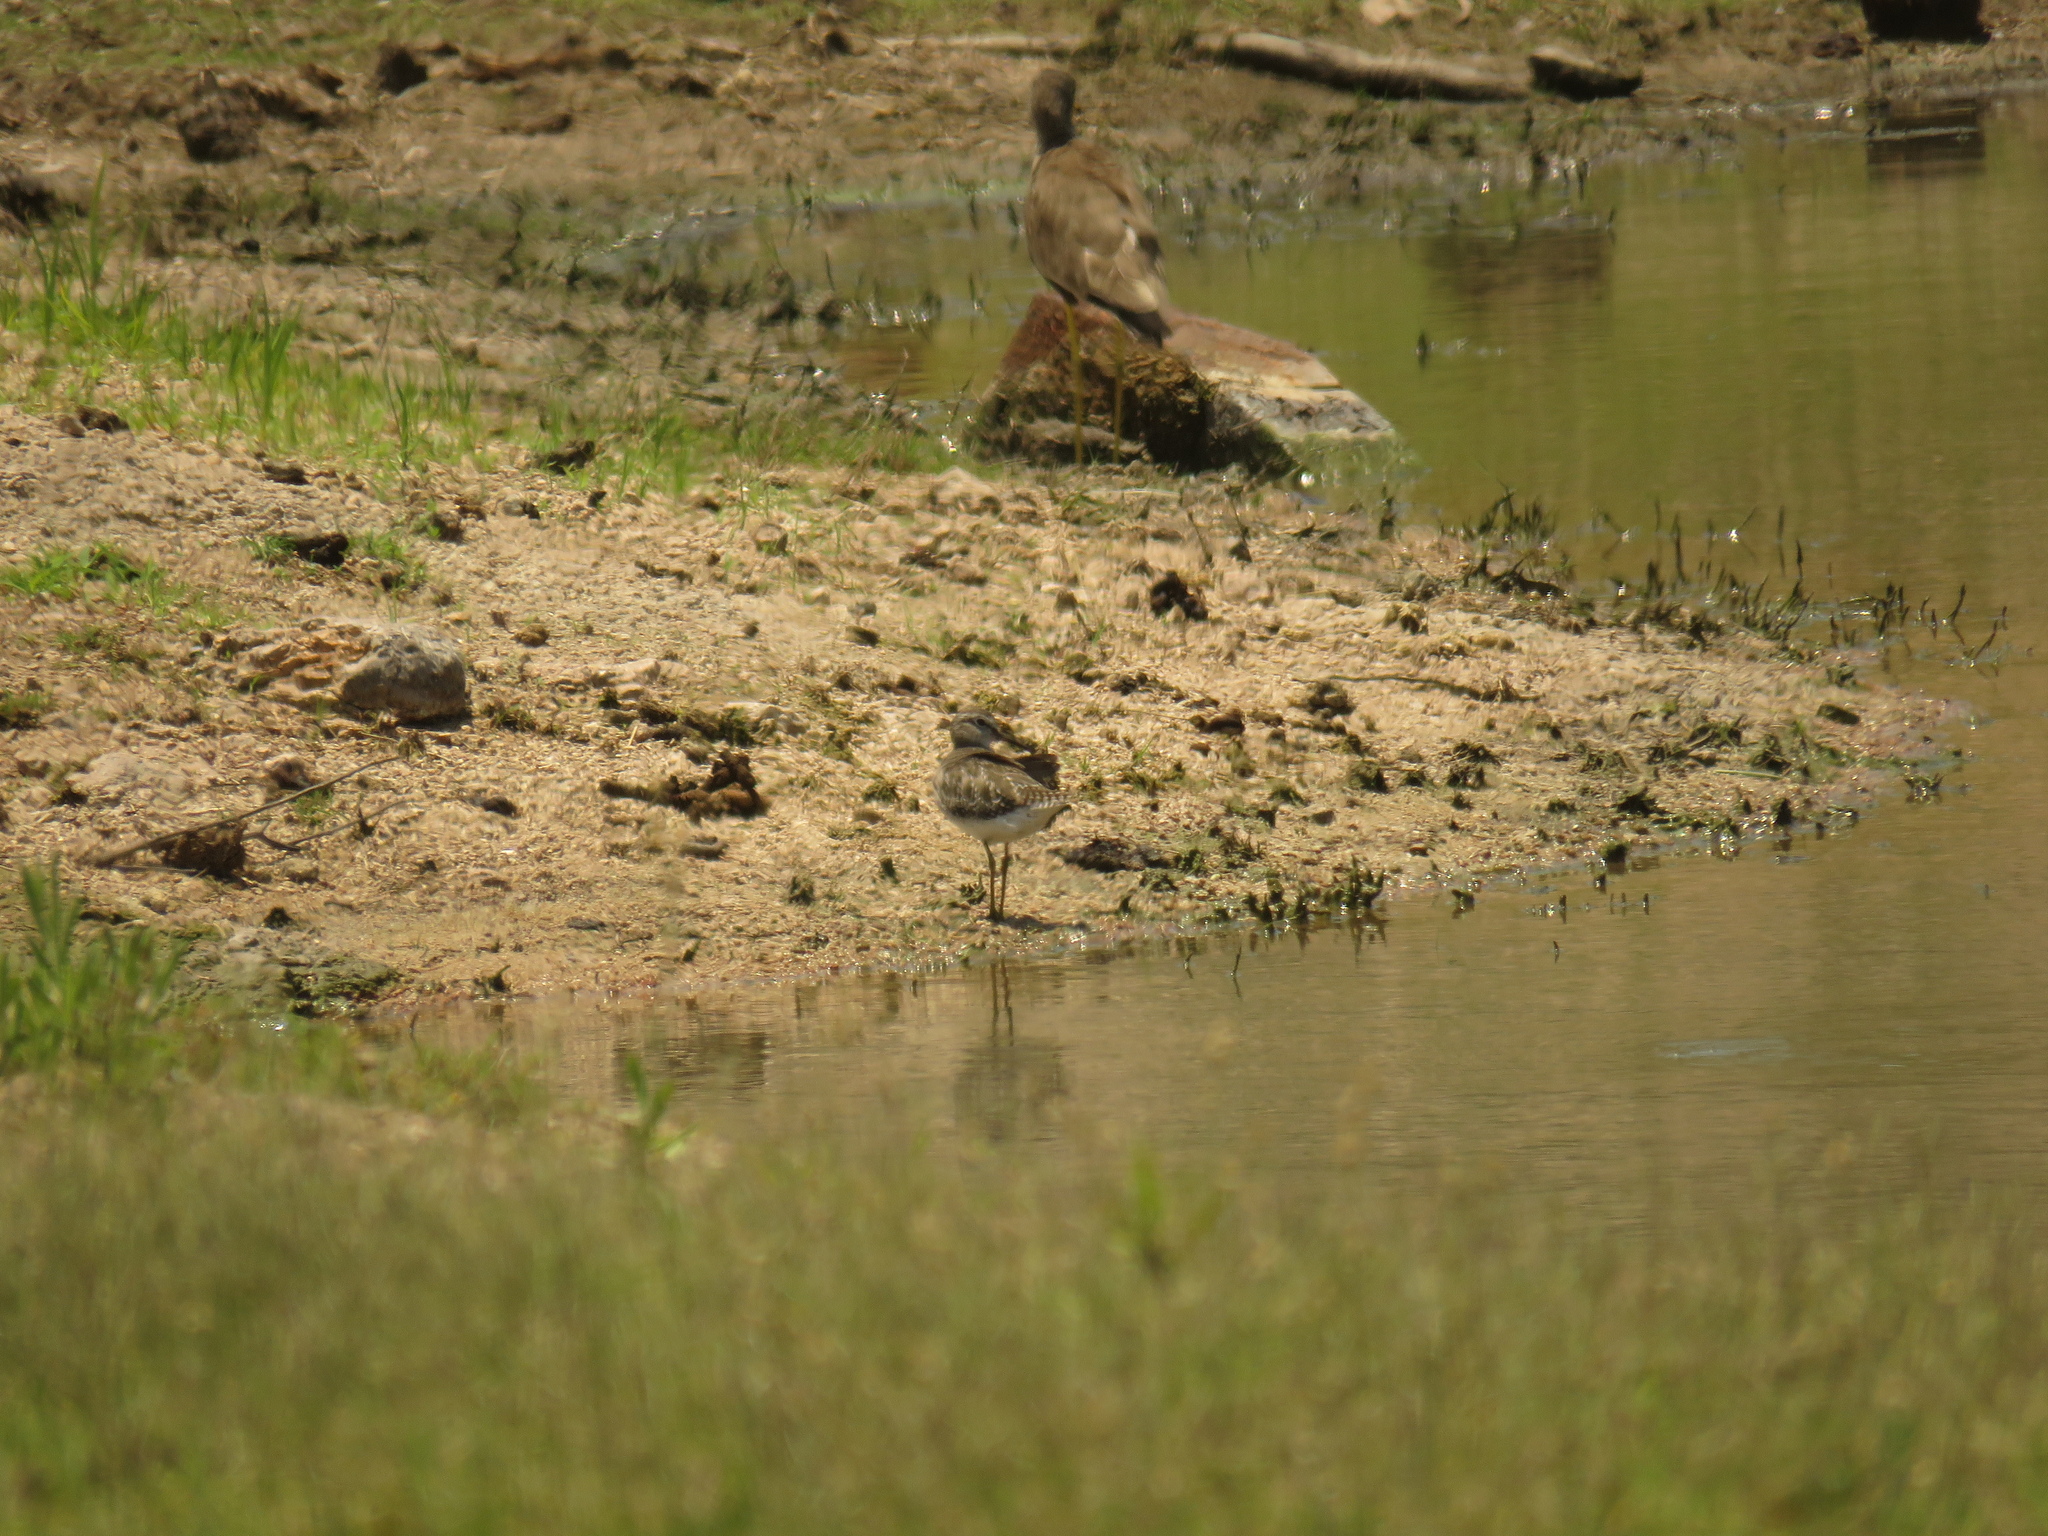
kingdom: Animalia
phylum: Chordata
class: Aves
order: Charadriiformes
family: Scolopacidae
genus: Tringa
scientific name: Tringa glareola
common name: Wood sandpiper
